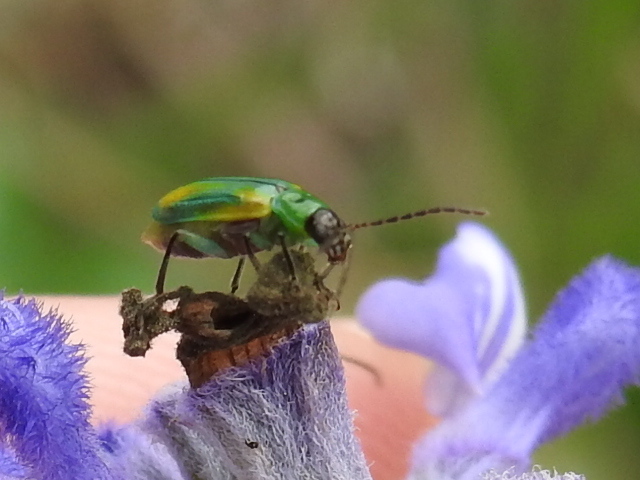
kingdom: Animalia
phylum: Arthropoda
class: Insecta
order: Coleoptera
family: Chrysomelidae
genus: Diabrotica
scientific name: Diabrotica longicornis
